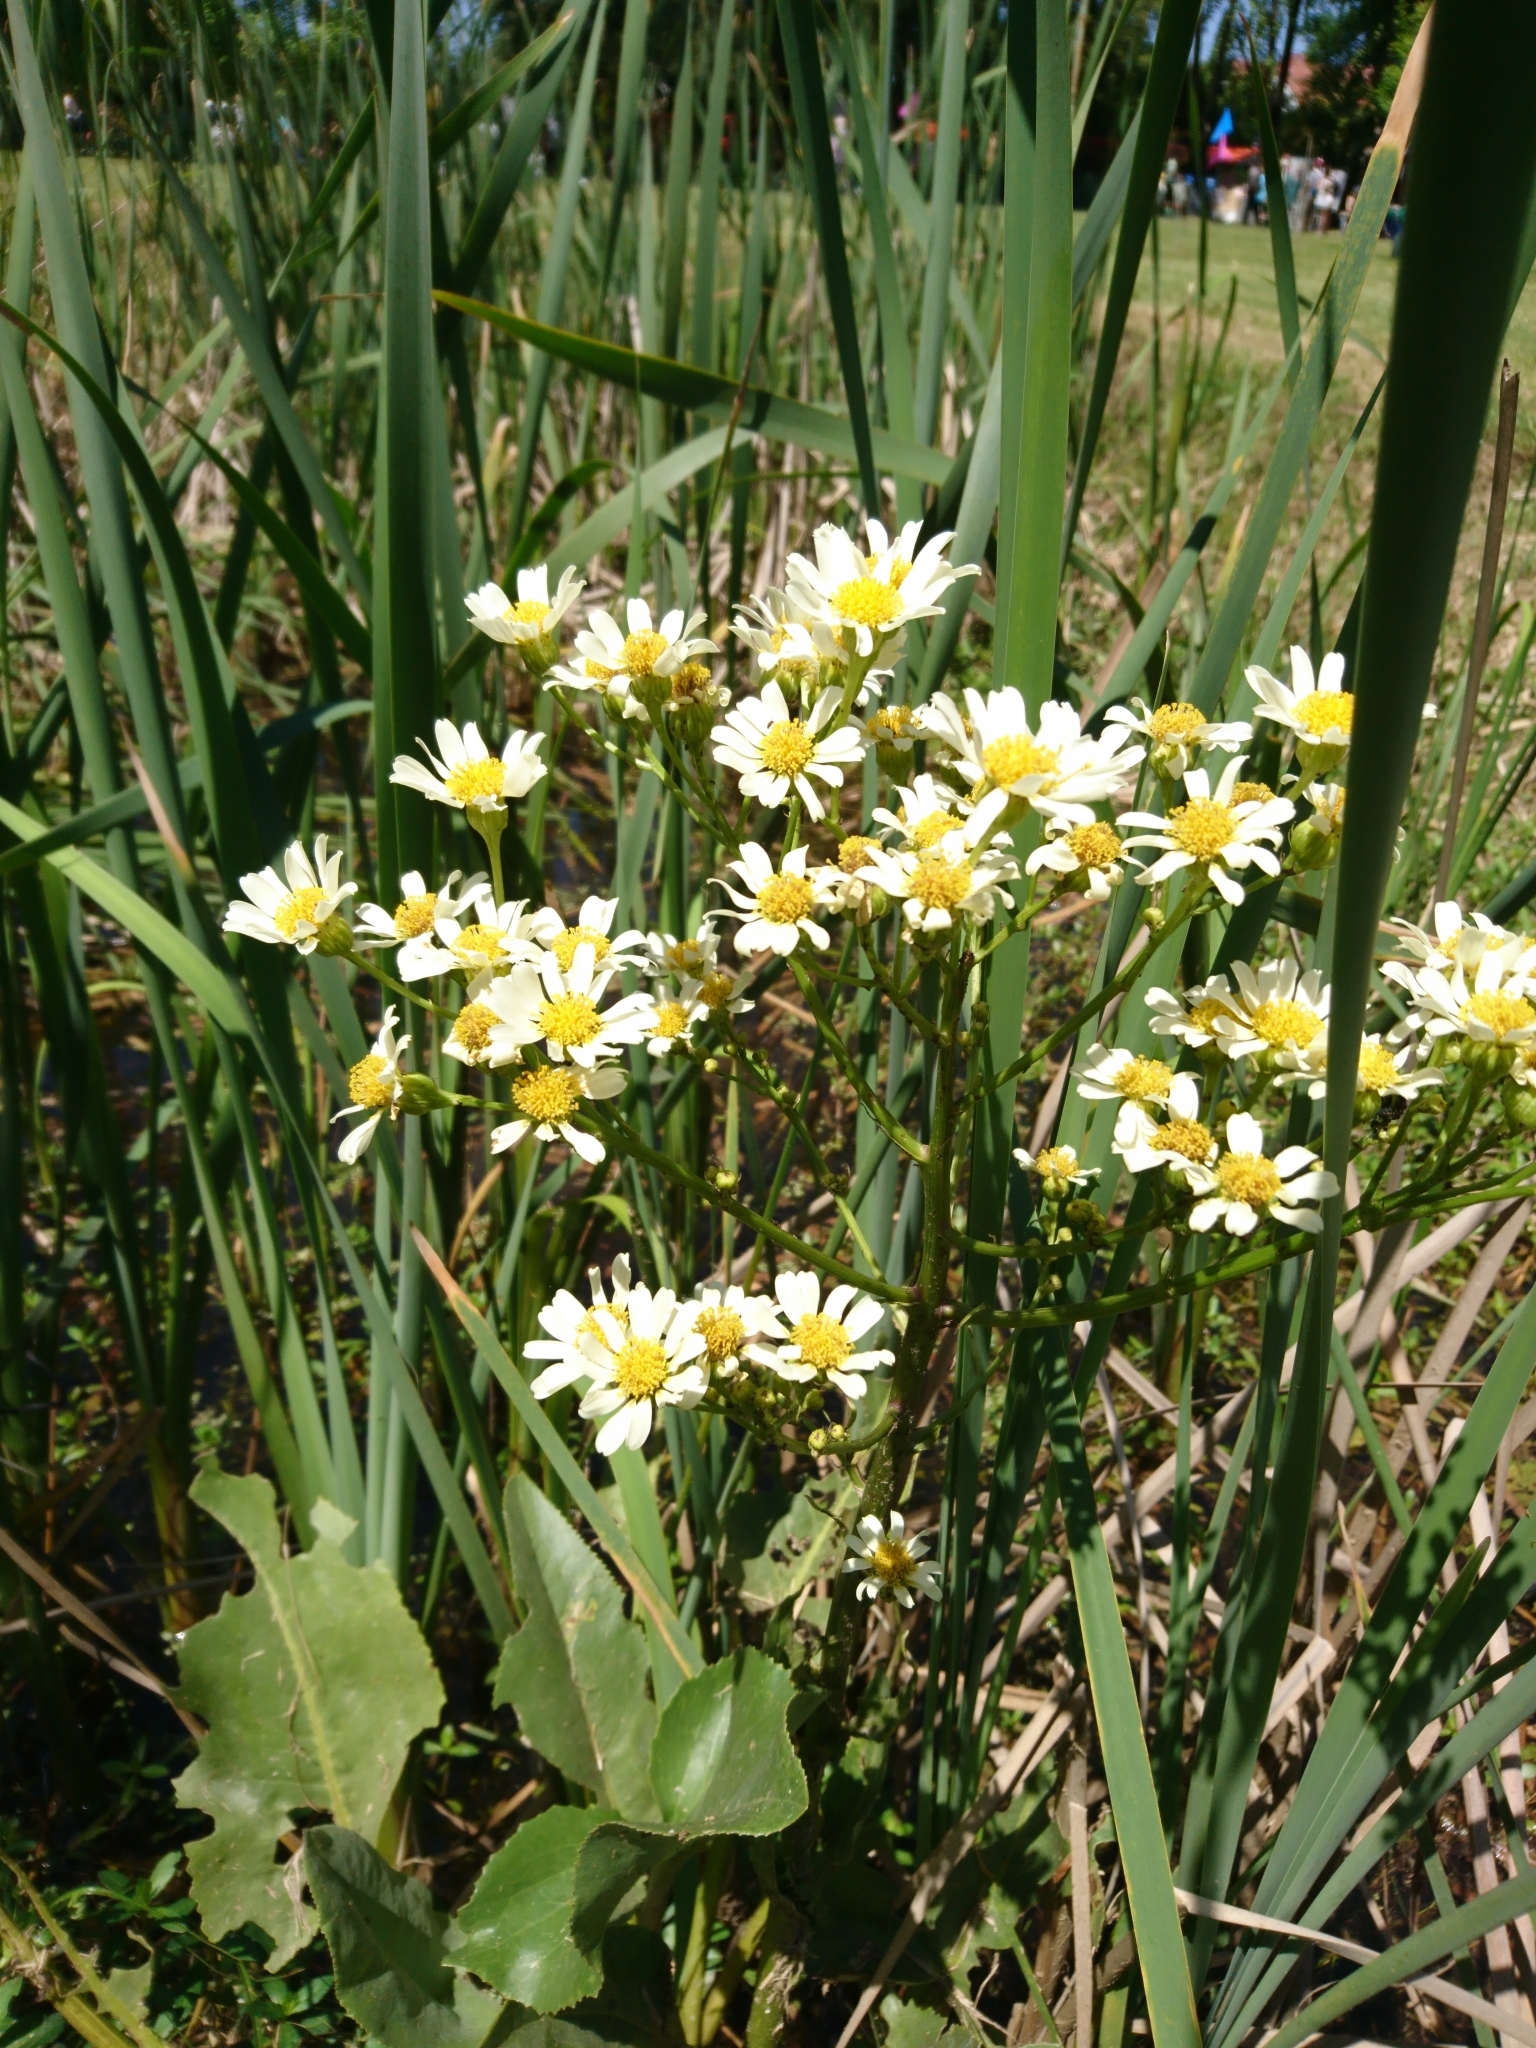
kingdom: Plantae
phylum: Tracheophyta
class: Magnoliopsida
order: Asterales
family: Asteraceae
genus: Senecio
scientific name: Senecio bonariensis
